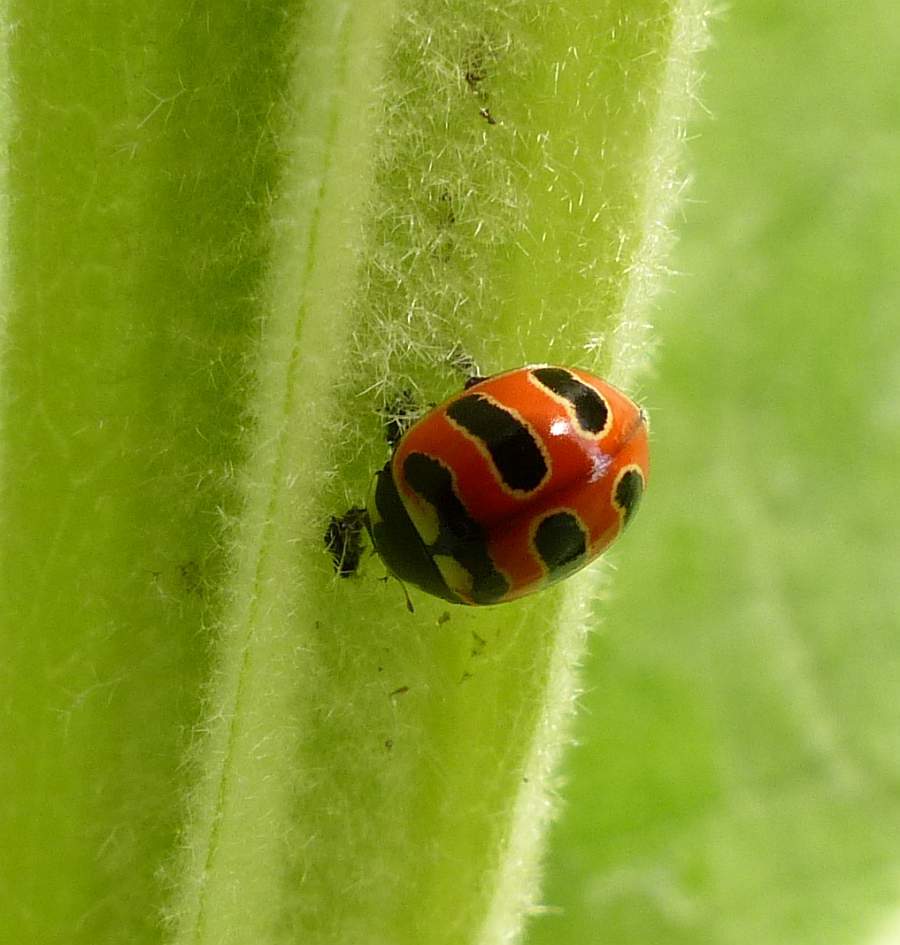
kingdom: Animalia
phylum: Arthropoda
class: Insecta
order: Coleoptera
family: Coccinellidae
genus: Coccinella
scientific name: Coccinella trifasciata
